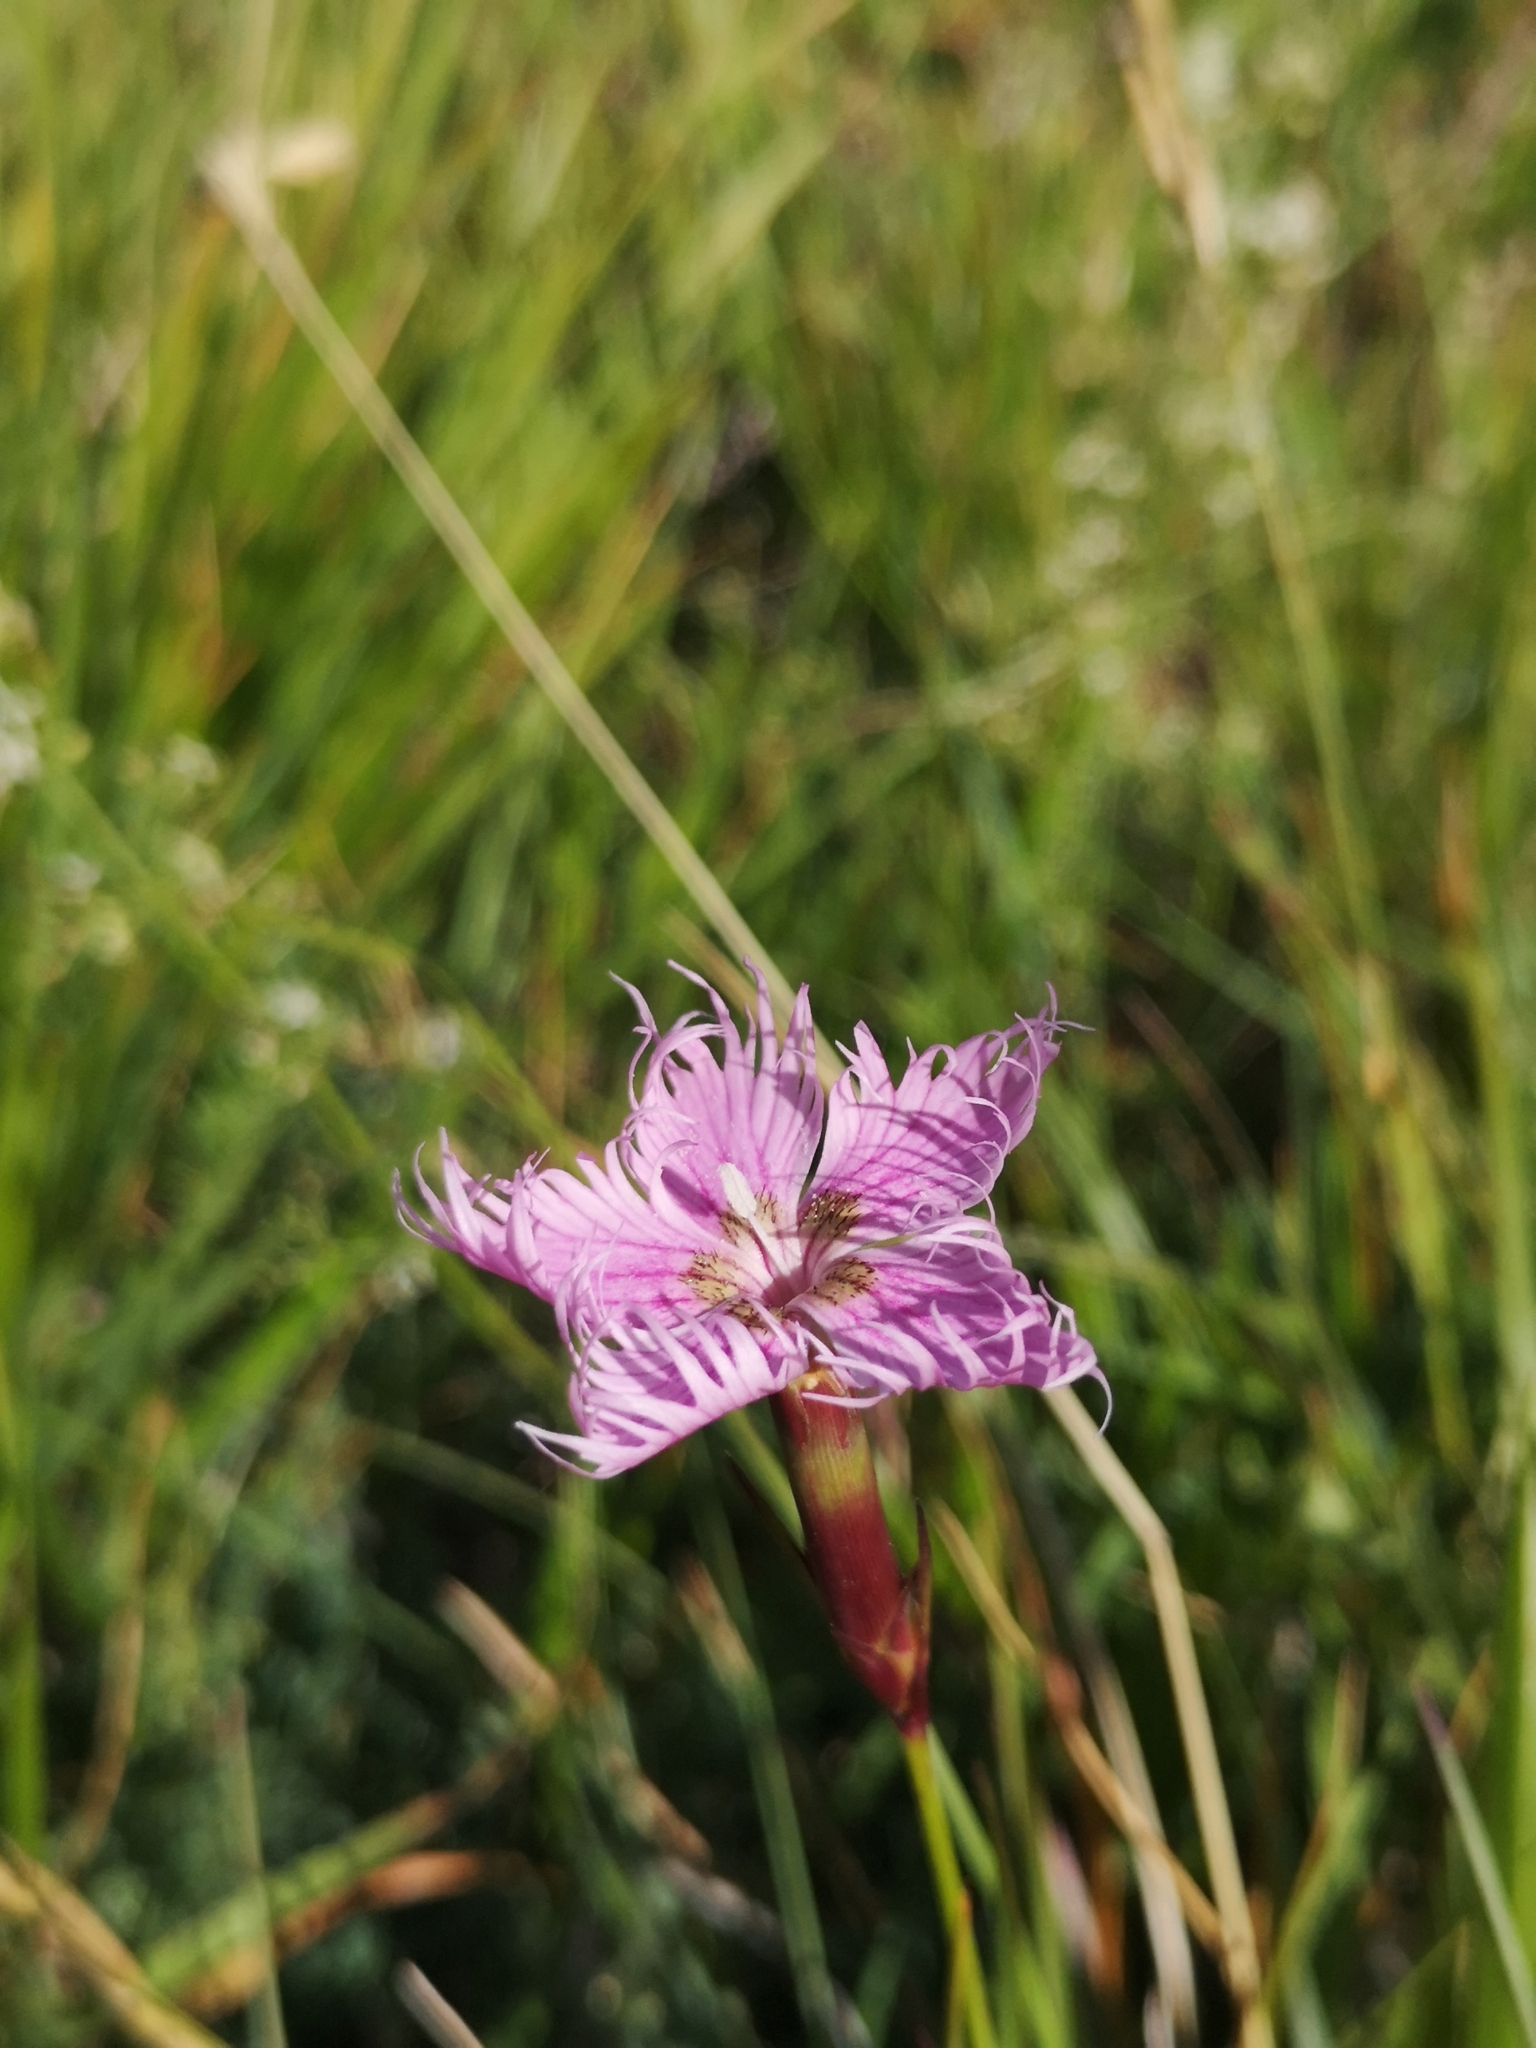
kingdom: Plantae
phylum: Tracheophyta
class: Magnoliopsida
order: Caryophyllales
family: Caryophyllaceae
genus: Dianthus
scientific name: Dianthus hyssopifolius
